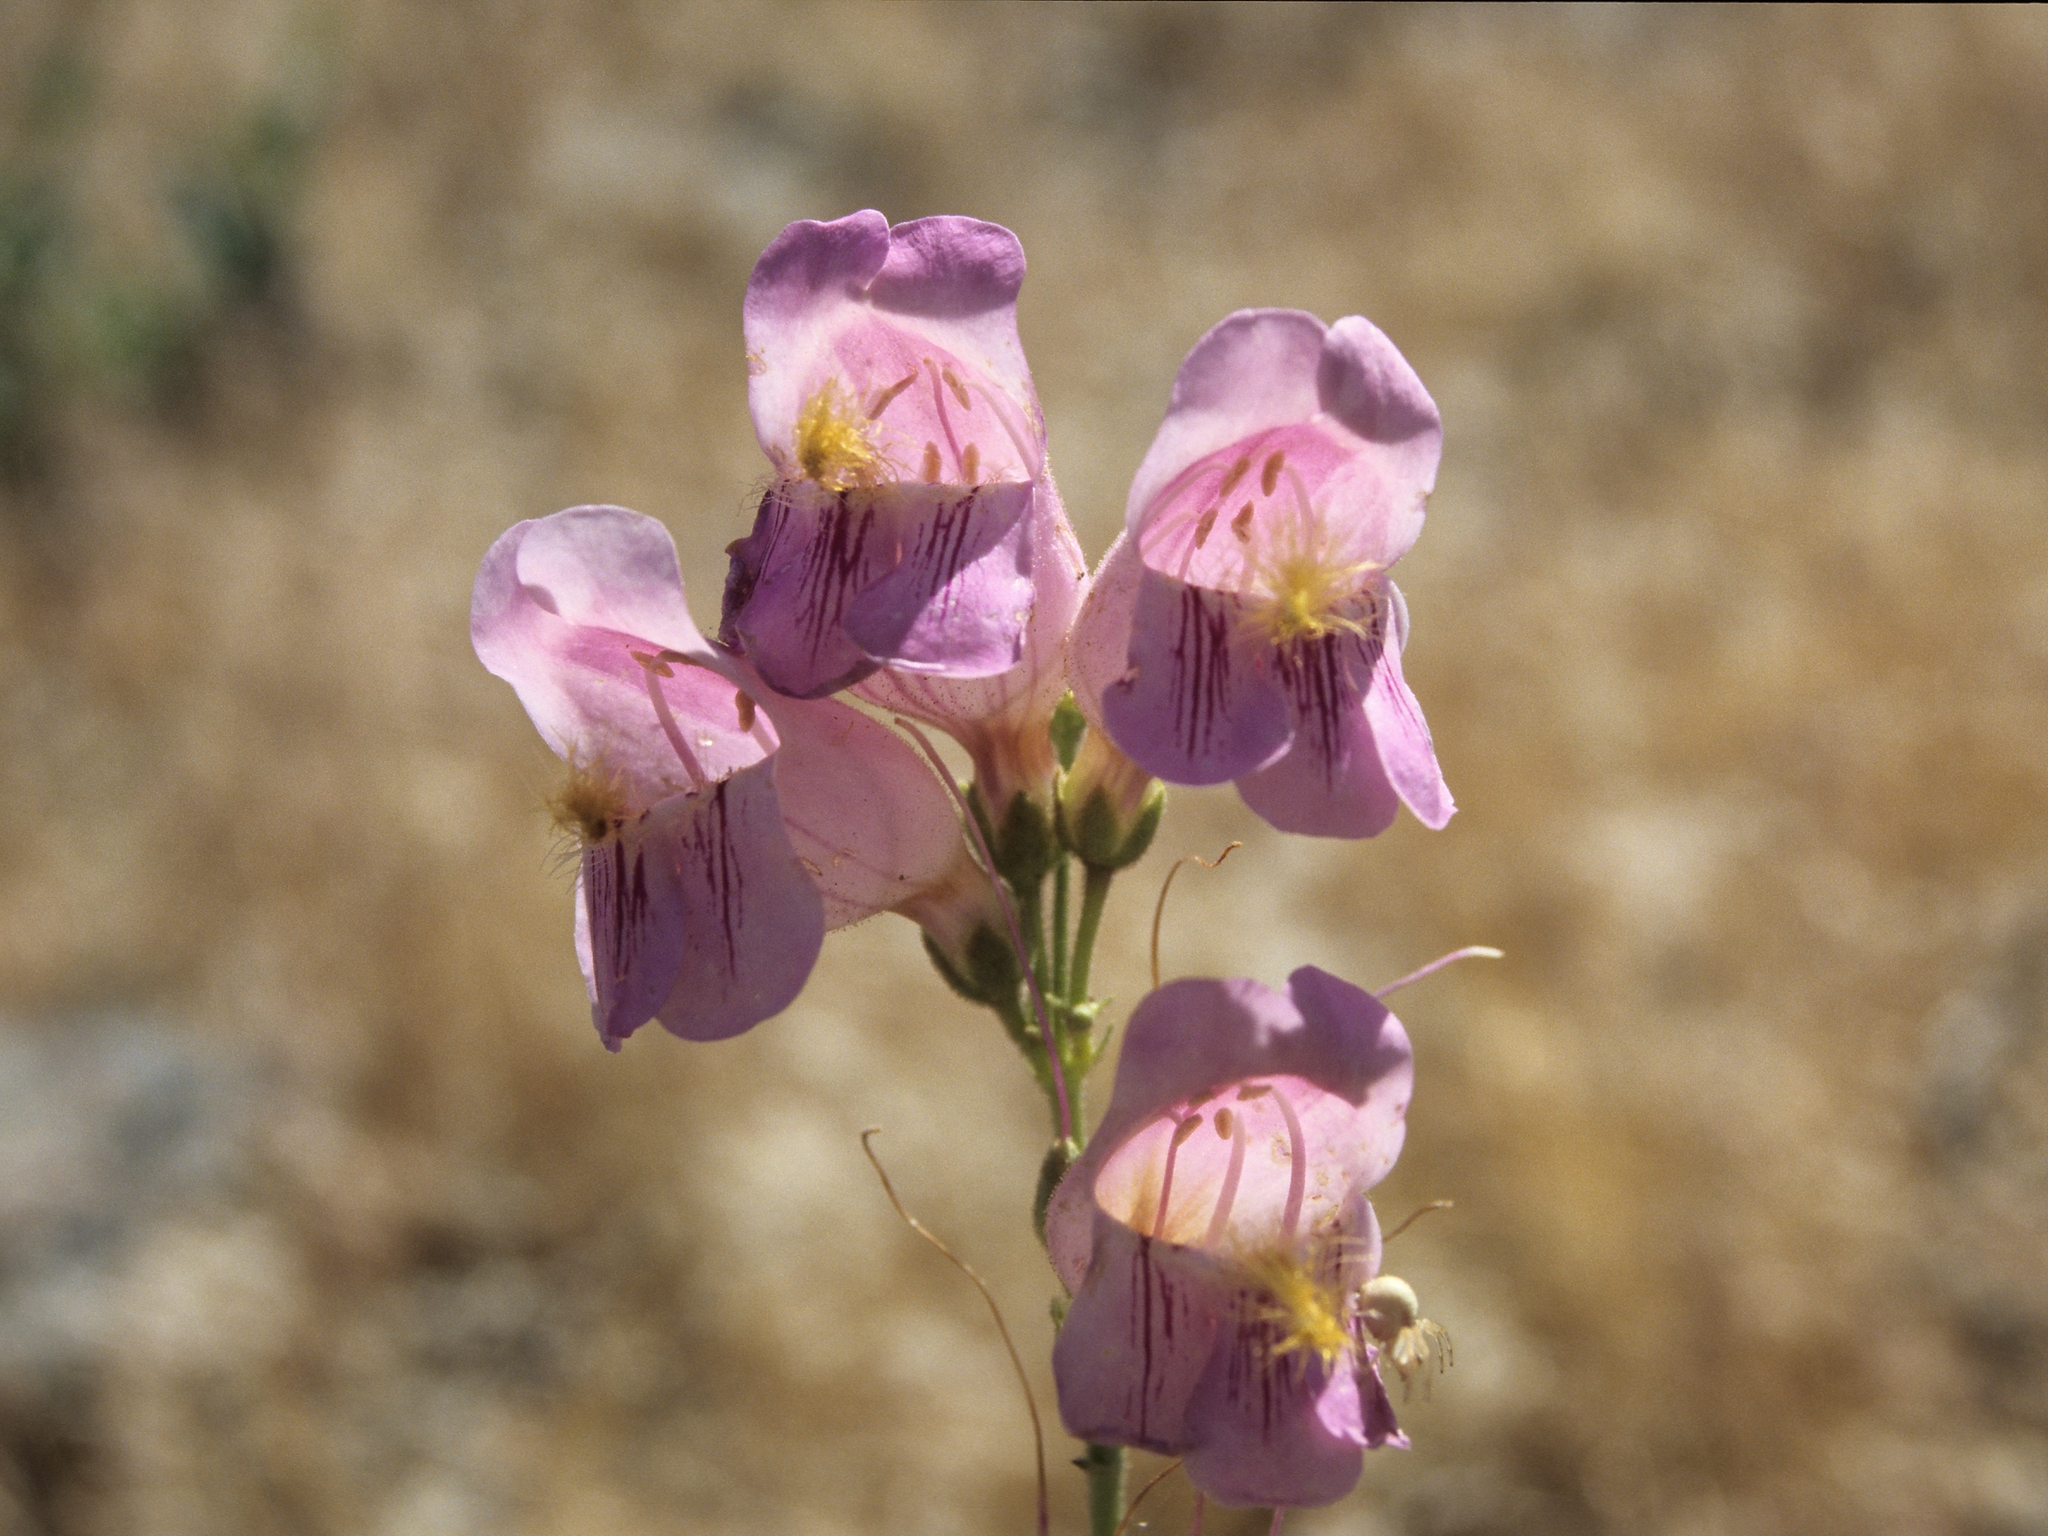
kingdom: Plantae
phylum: Tracheophyta
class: Magnoliopsida
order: Lamiales
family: Plantaginaceae
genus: Penstemon
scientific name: Penstemon palmeri
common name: Palmer penstemon
